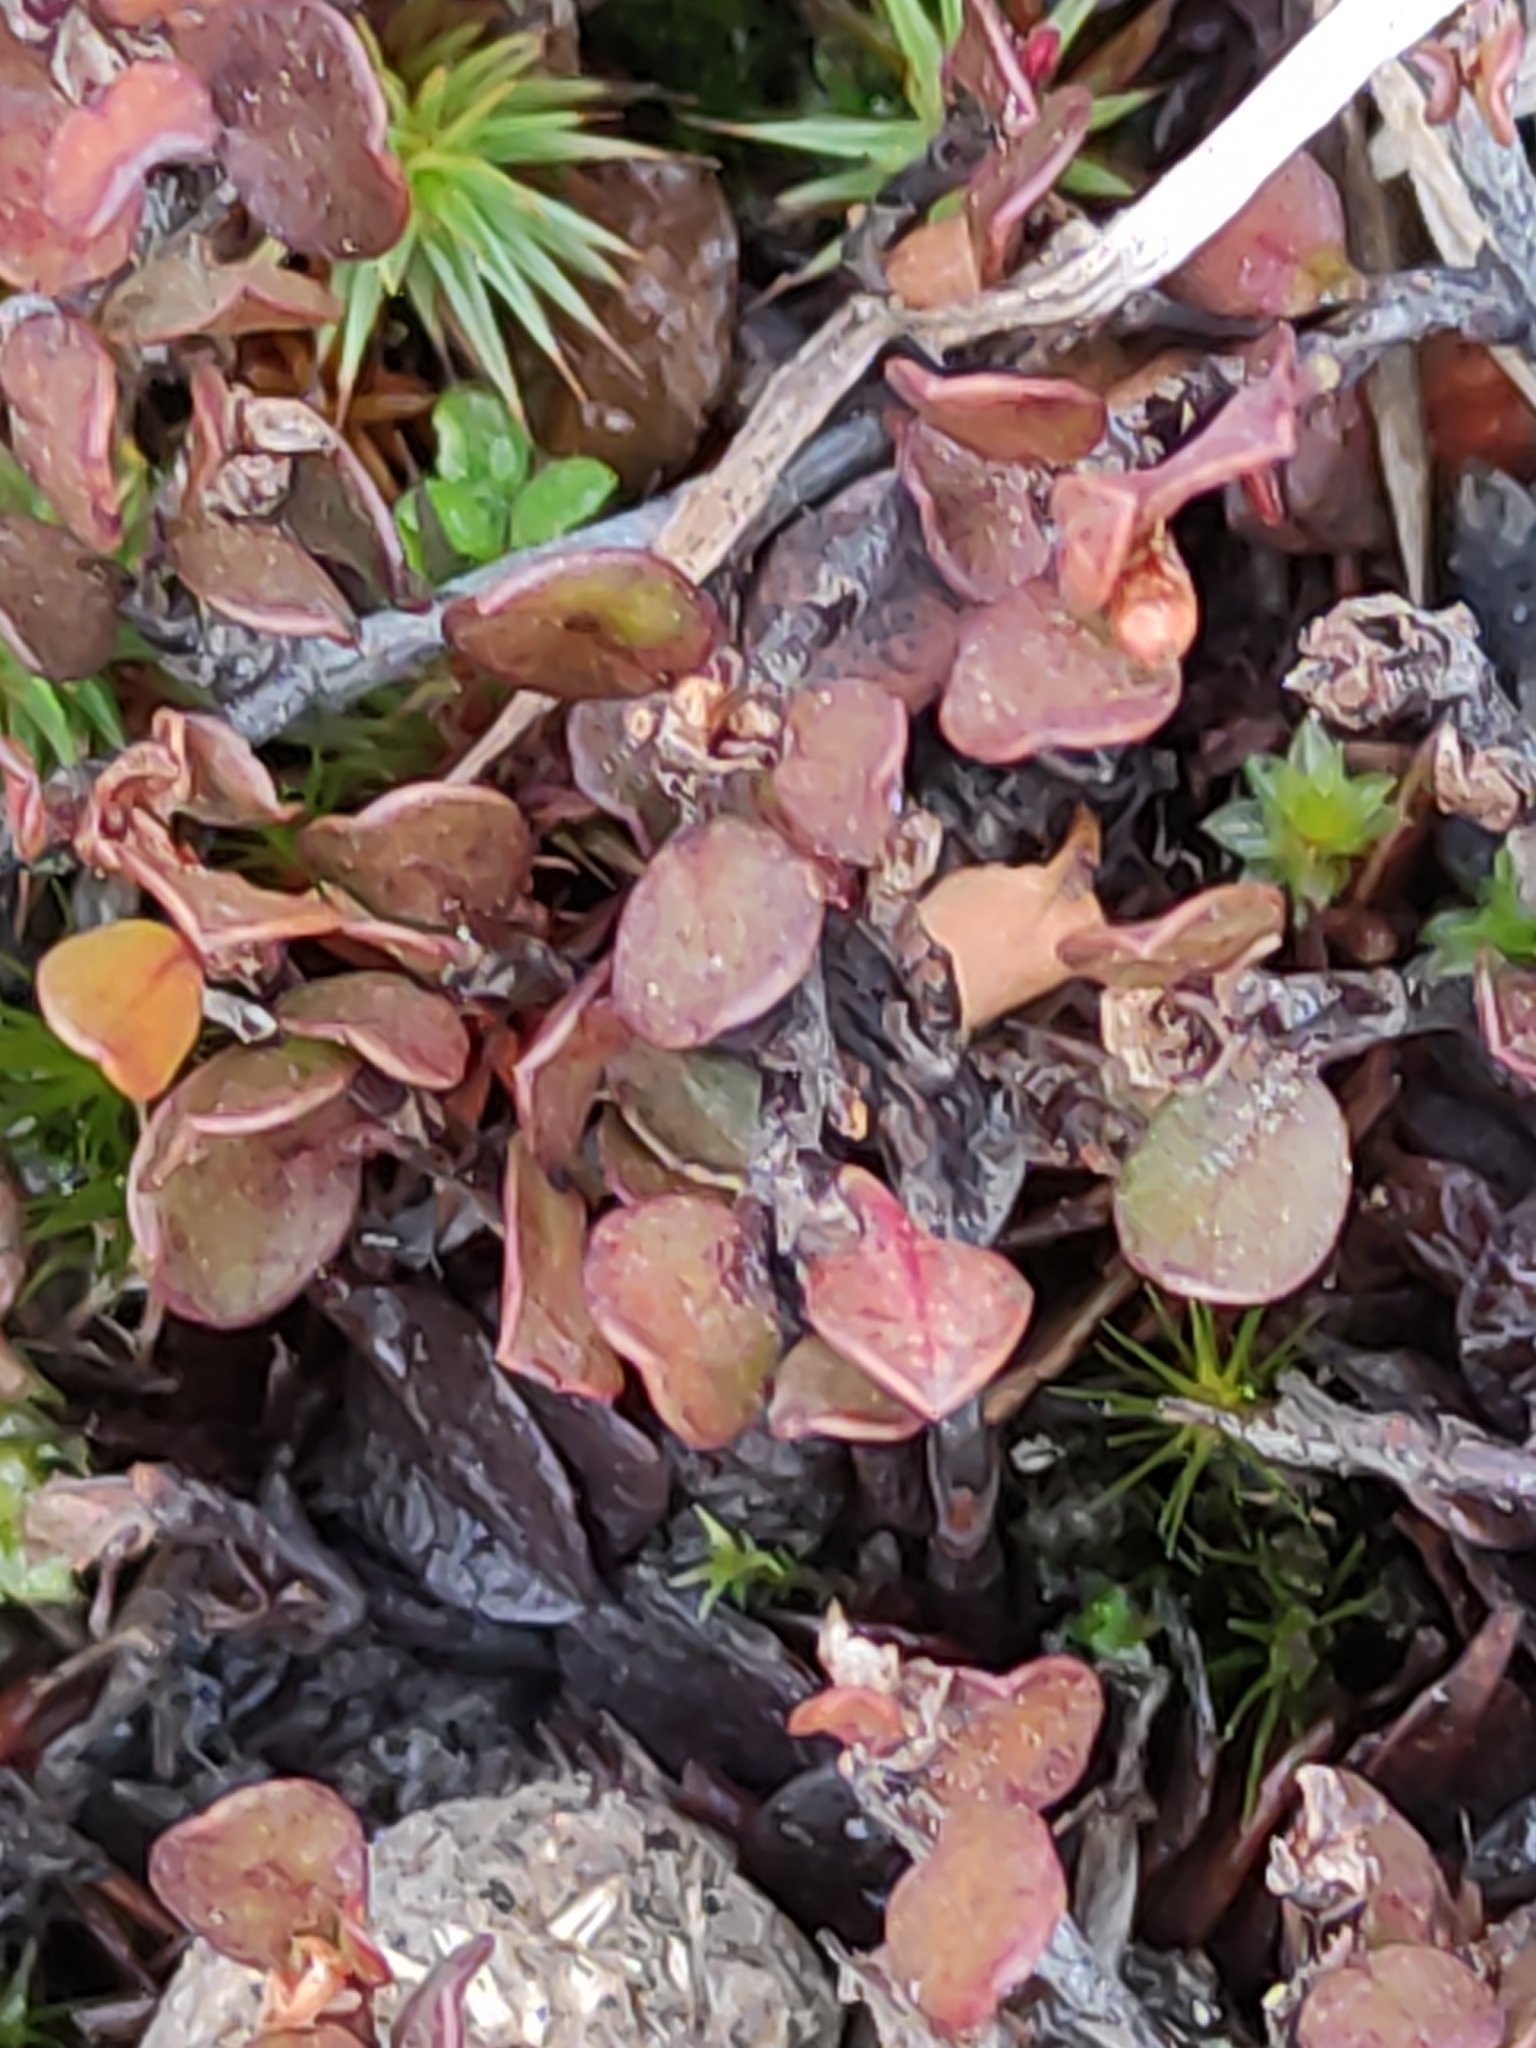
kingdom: Plantae
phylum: Tracheophyta
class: Magnoliopsida
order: Caryophyllales
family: Polygonaceae
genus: Muehlenbeckia
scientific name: Muehlenbeckia axillaris
